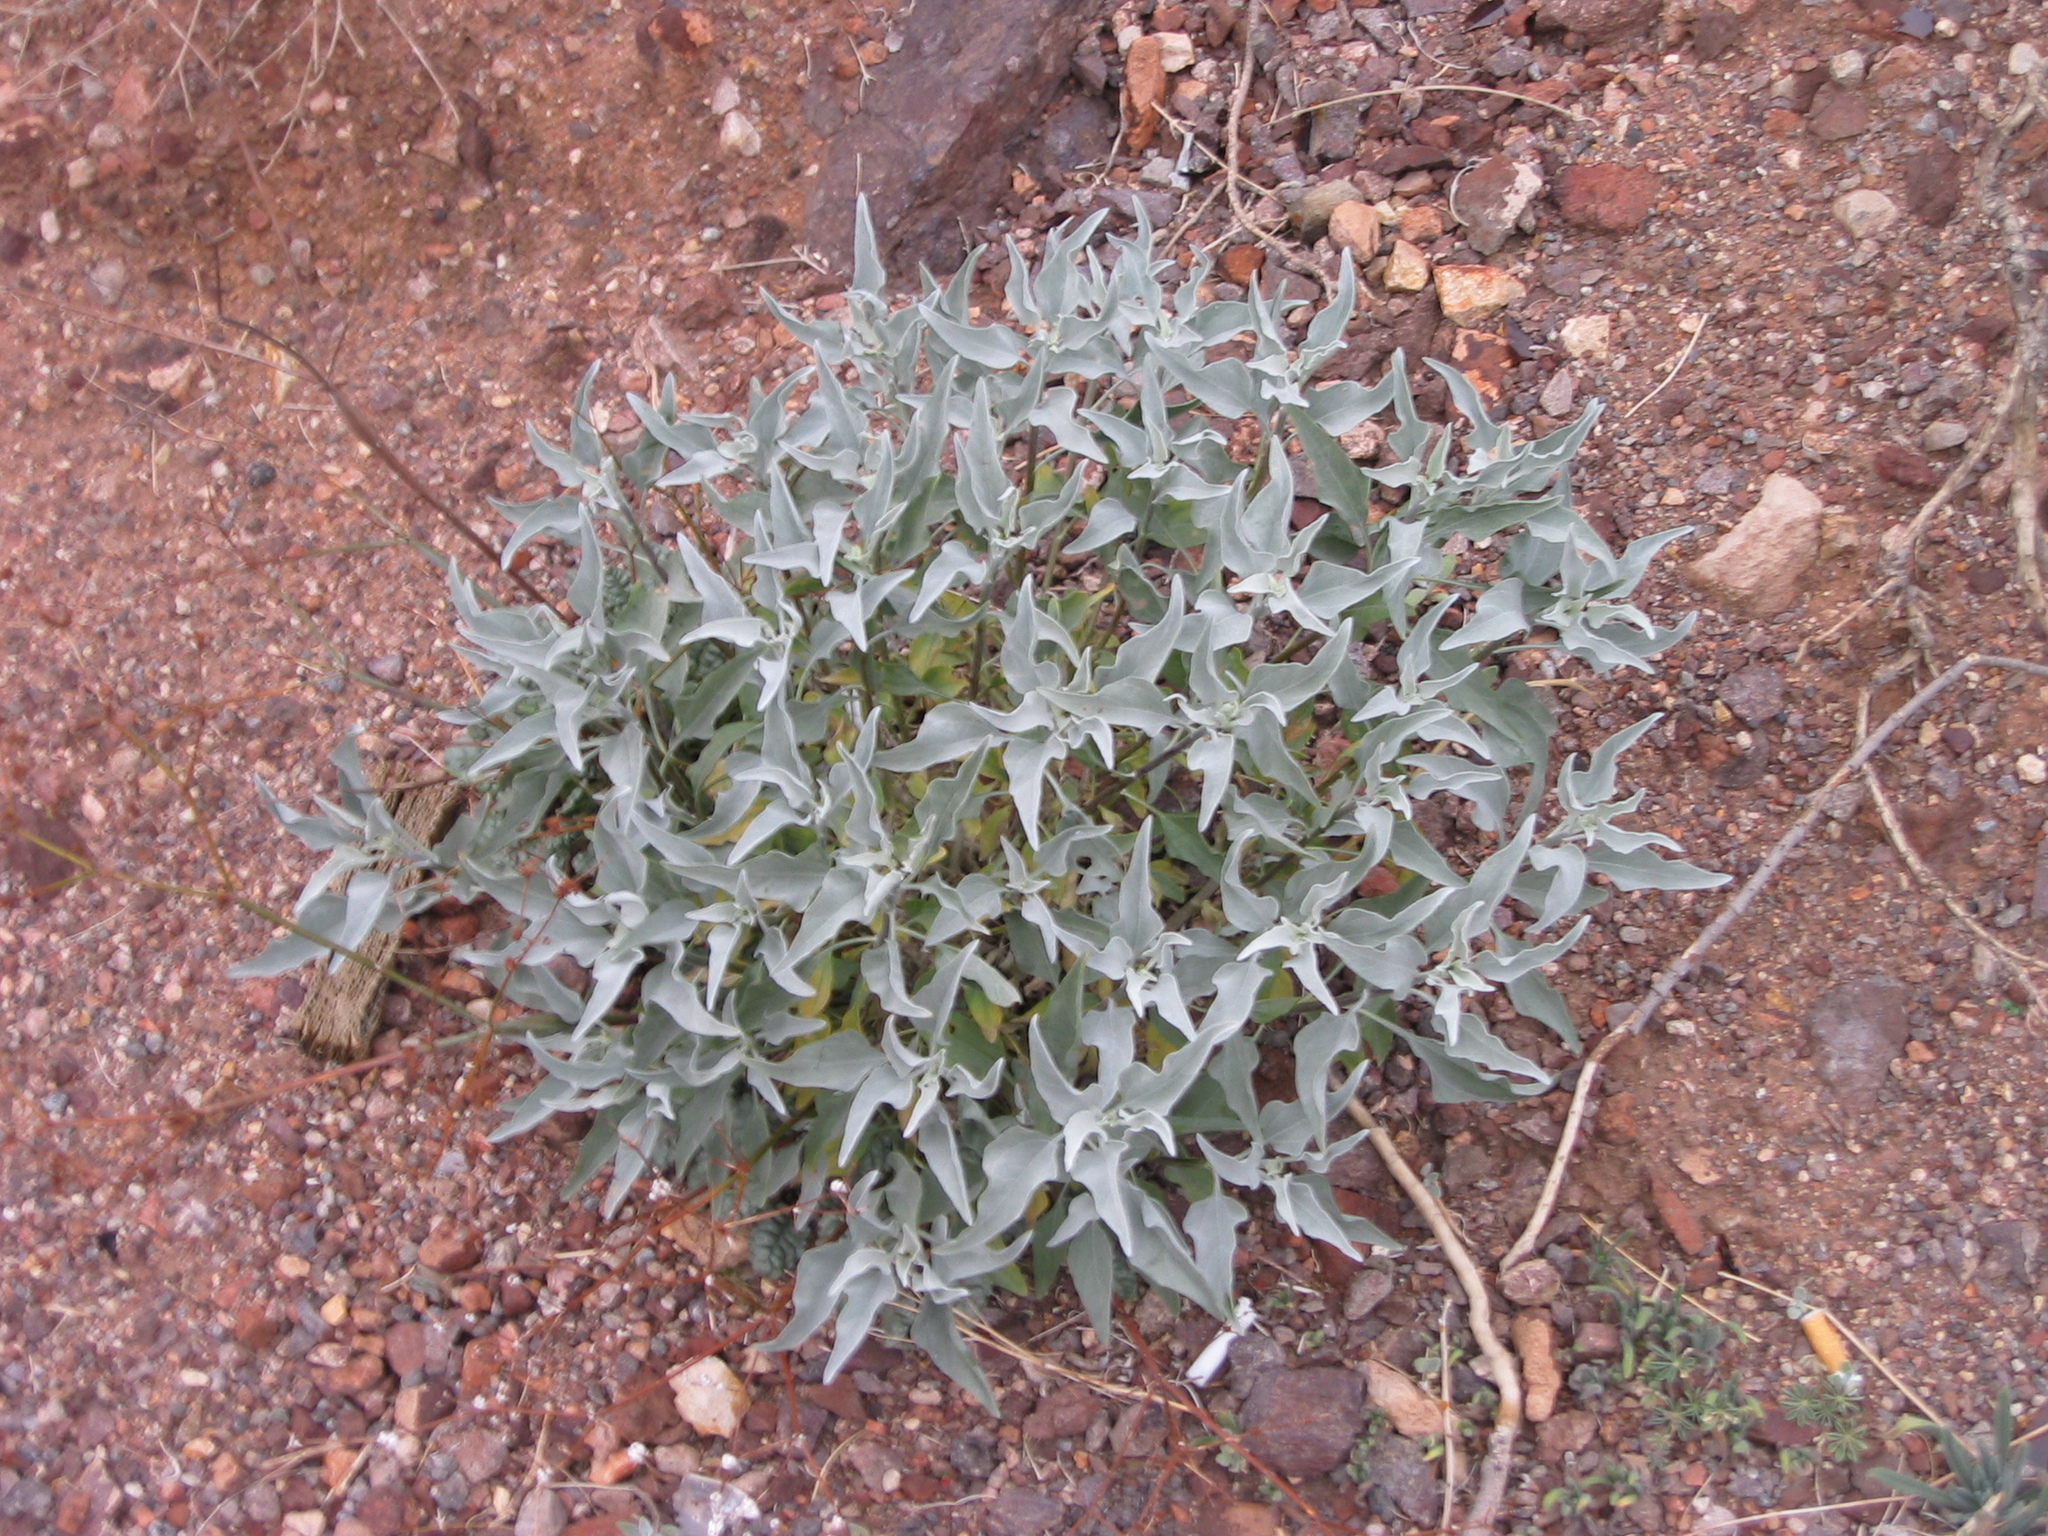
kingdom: Plantae
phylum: Tracheophyta
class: Magnoliopsida
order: Asterales
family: Asteraceae
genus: Encelia
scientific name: Encelia farinosa
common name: Brittlebush
